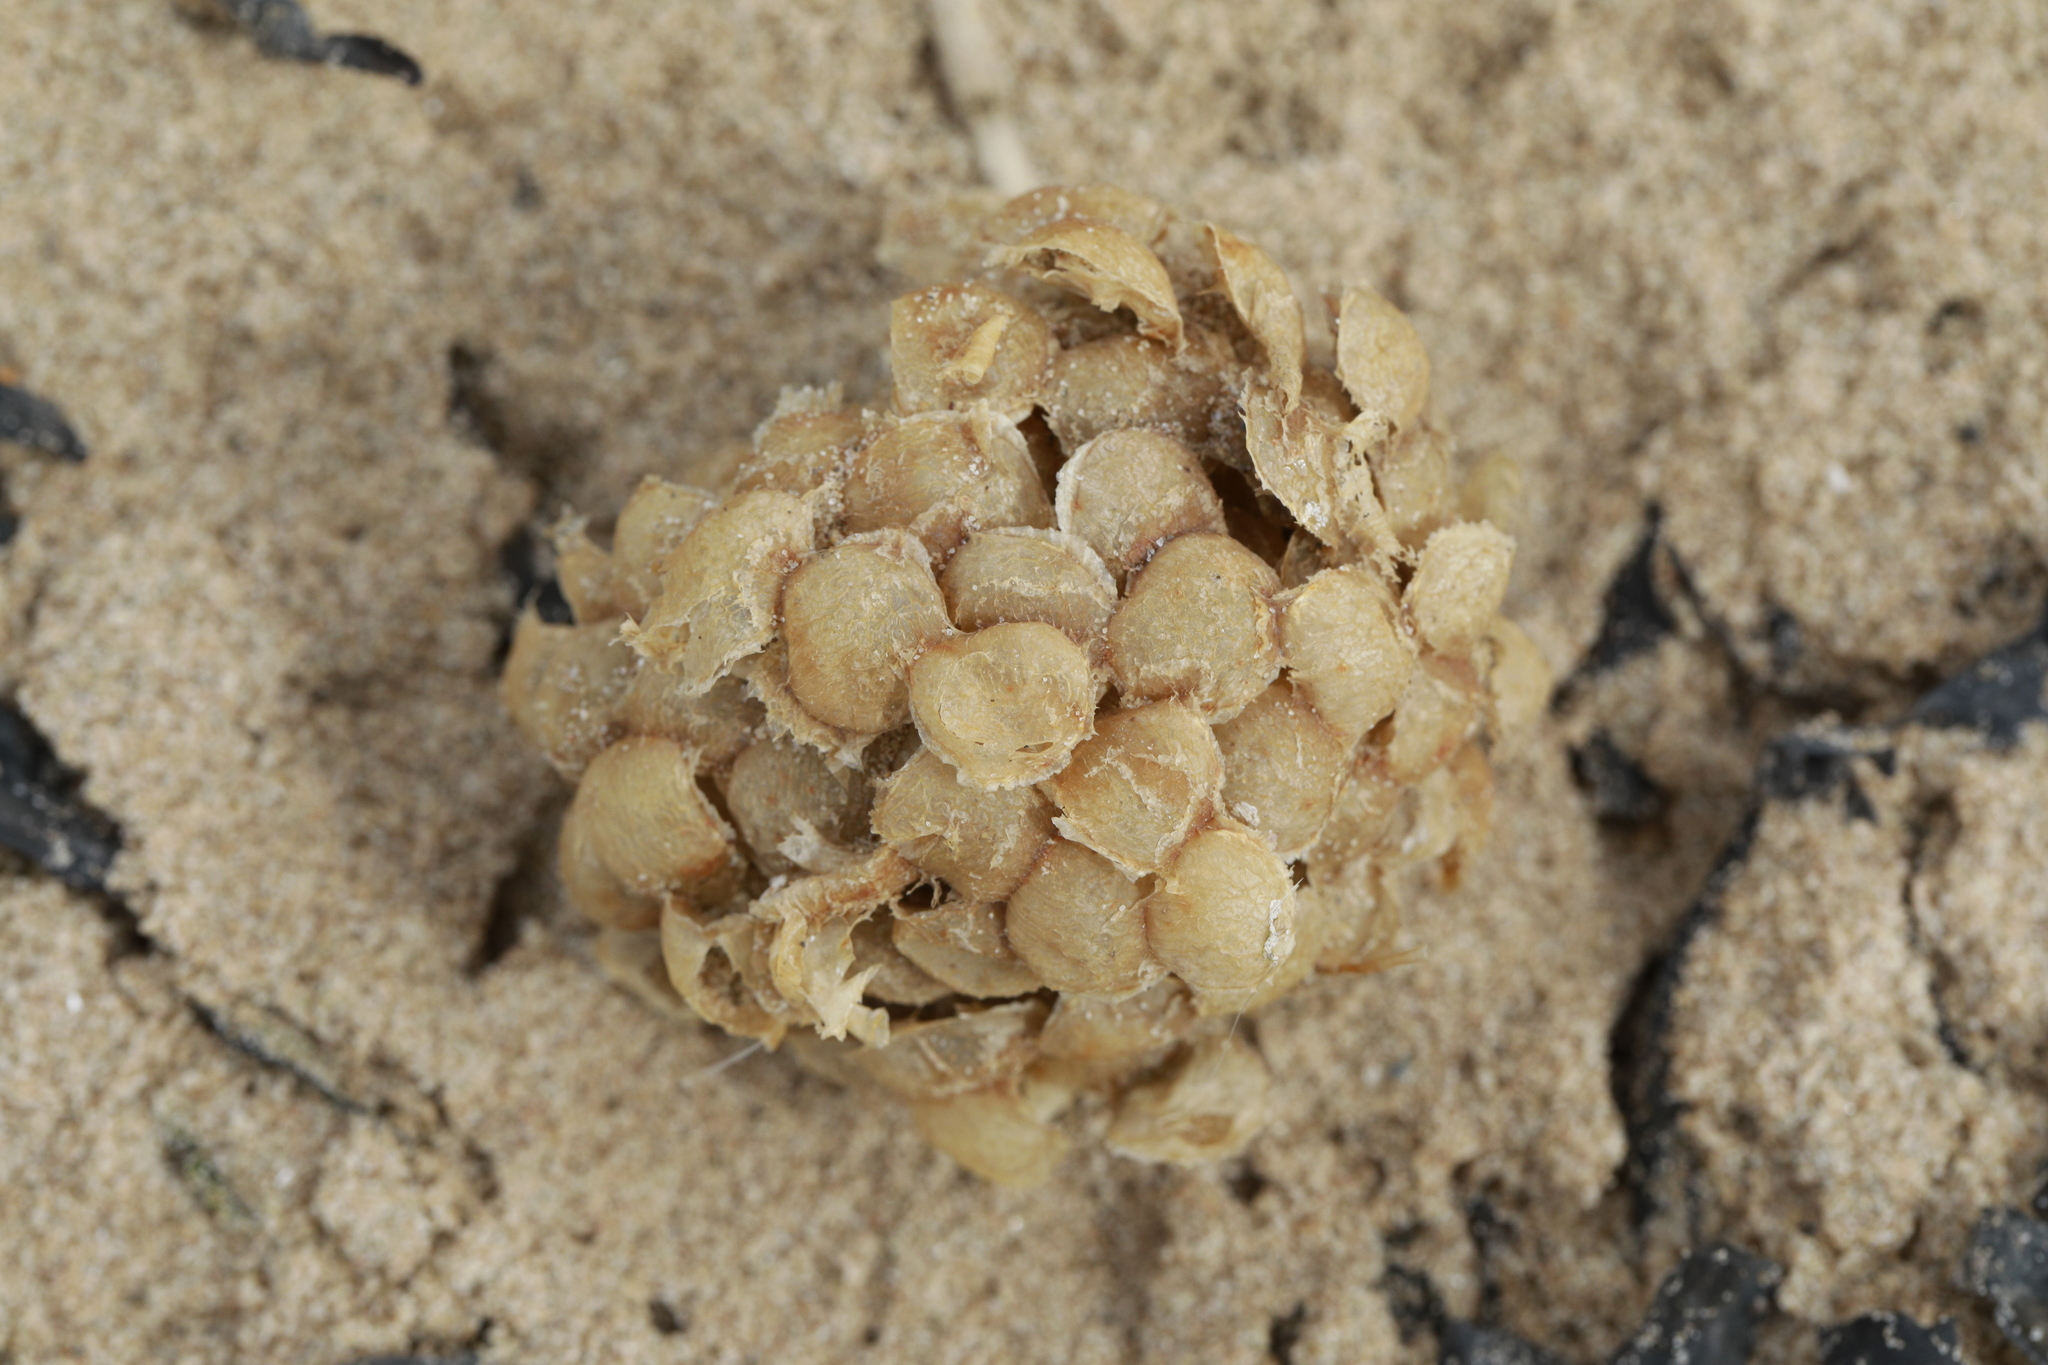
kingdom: Animalia
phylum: Mollusca
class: Gastropoda
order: Neogastropoda
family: Buccinidae
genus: Buccinum
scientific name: Buccinum undatum
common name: Common whelk
